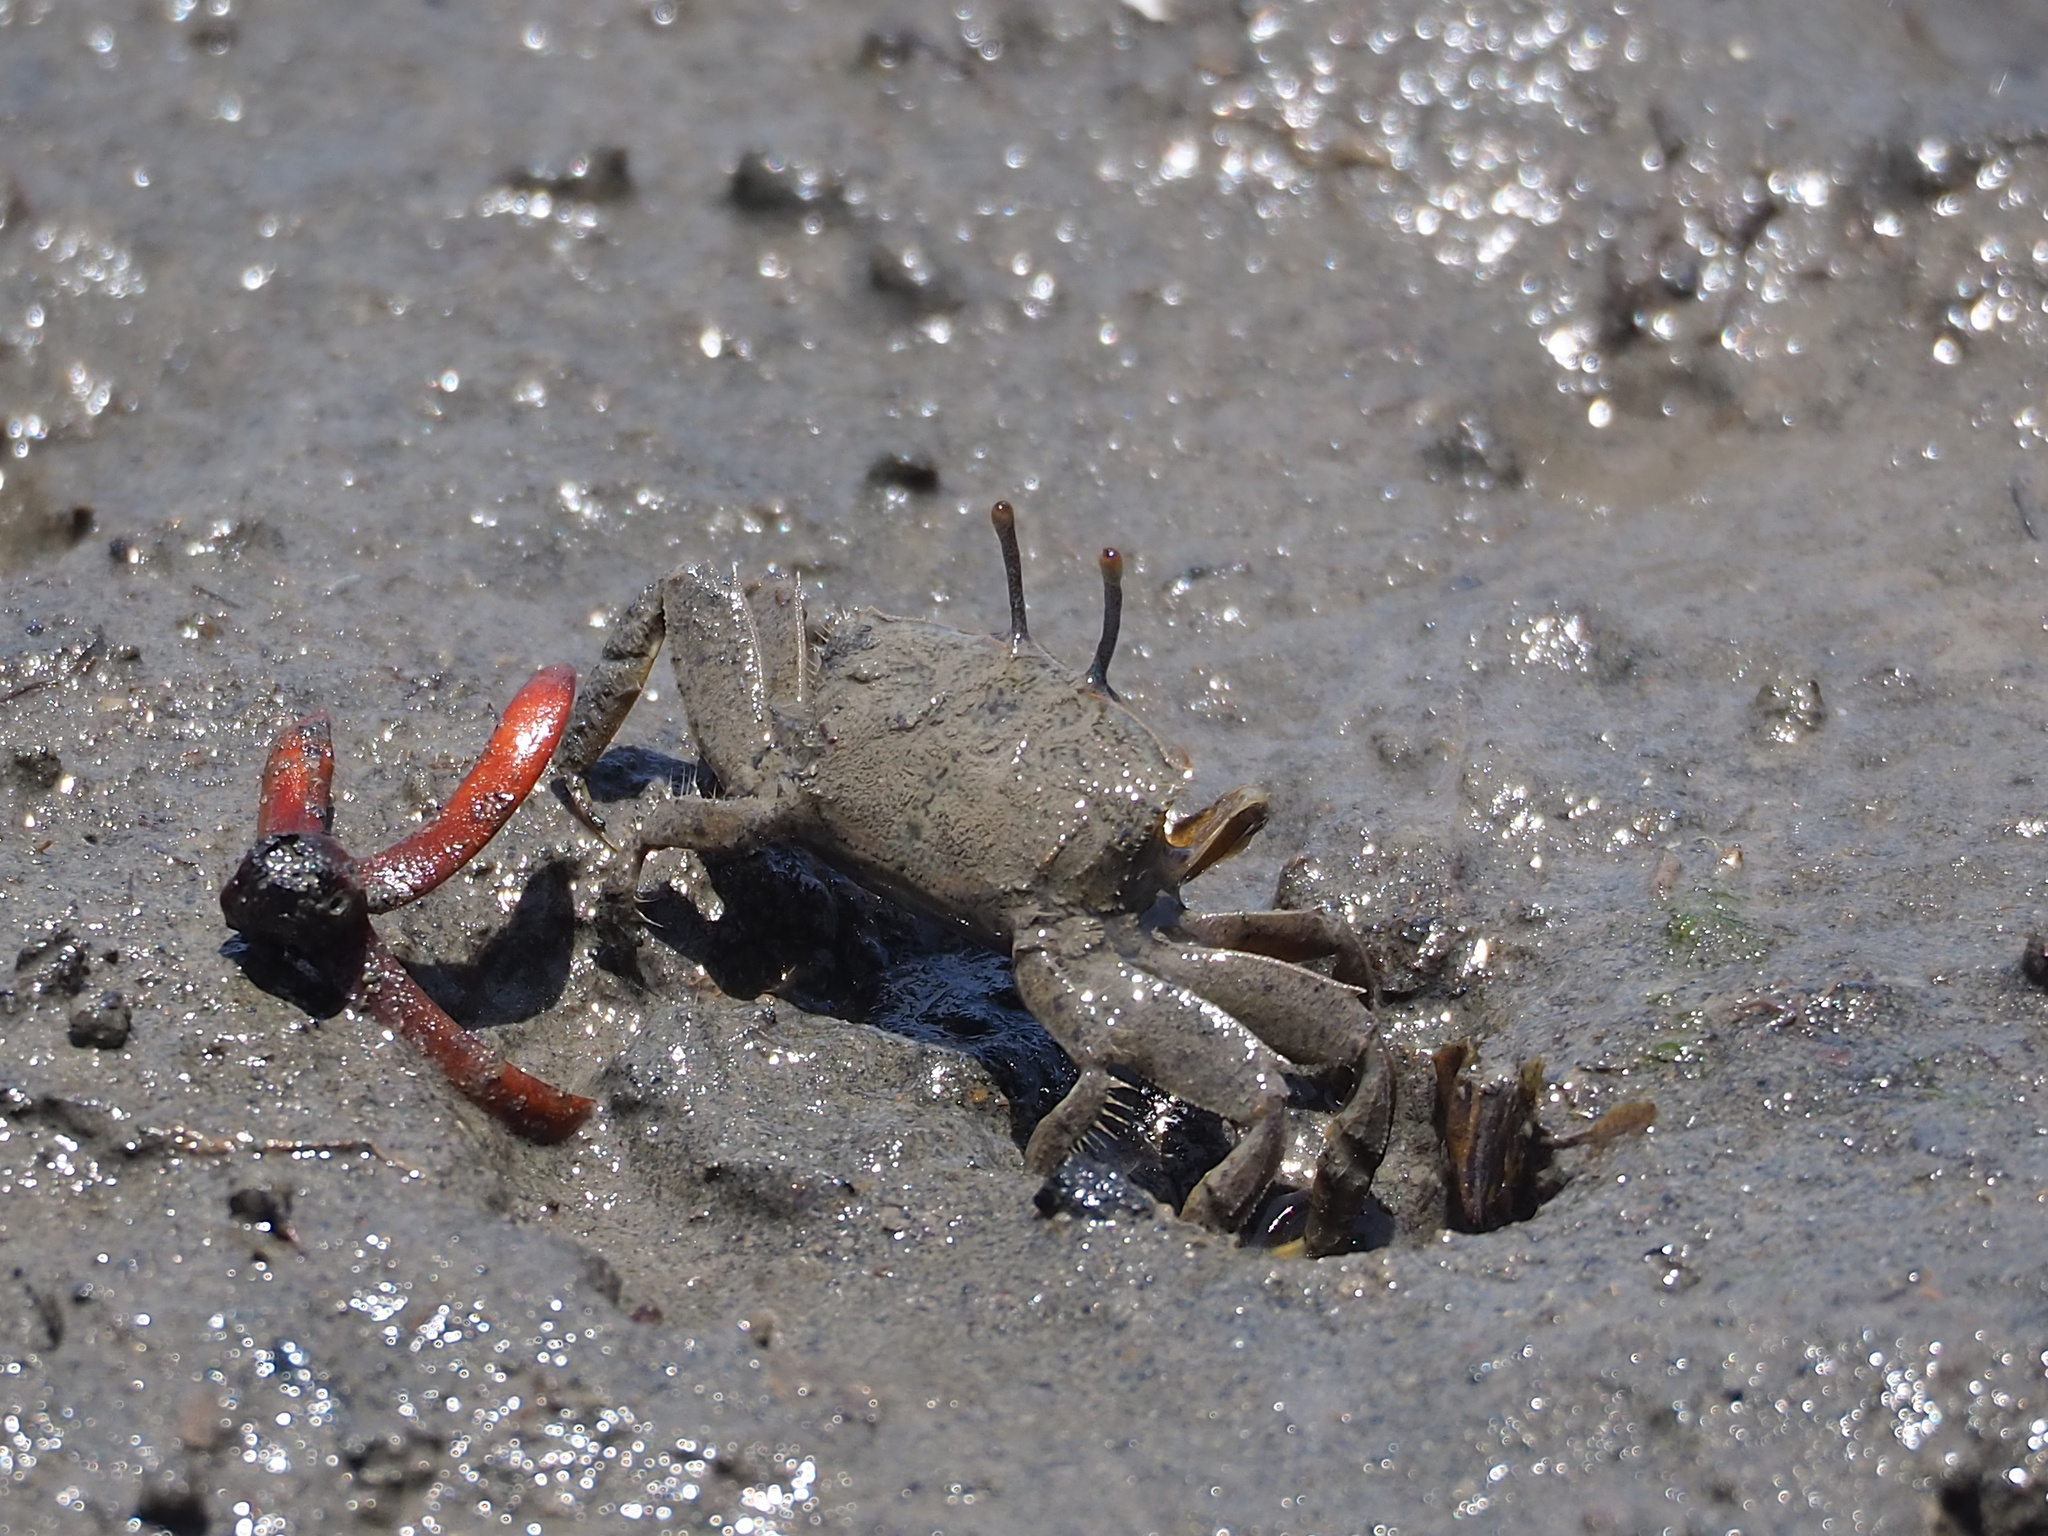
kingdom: Animalia
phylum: Arthropoda
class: Malacostraca
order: Decapoda
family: Macrophthalmidae
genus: Macrophthalmus
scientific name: Macrophthalmus banzai
